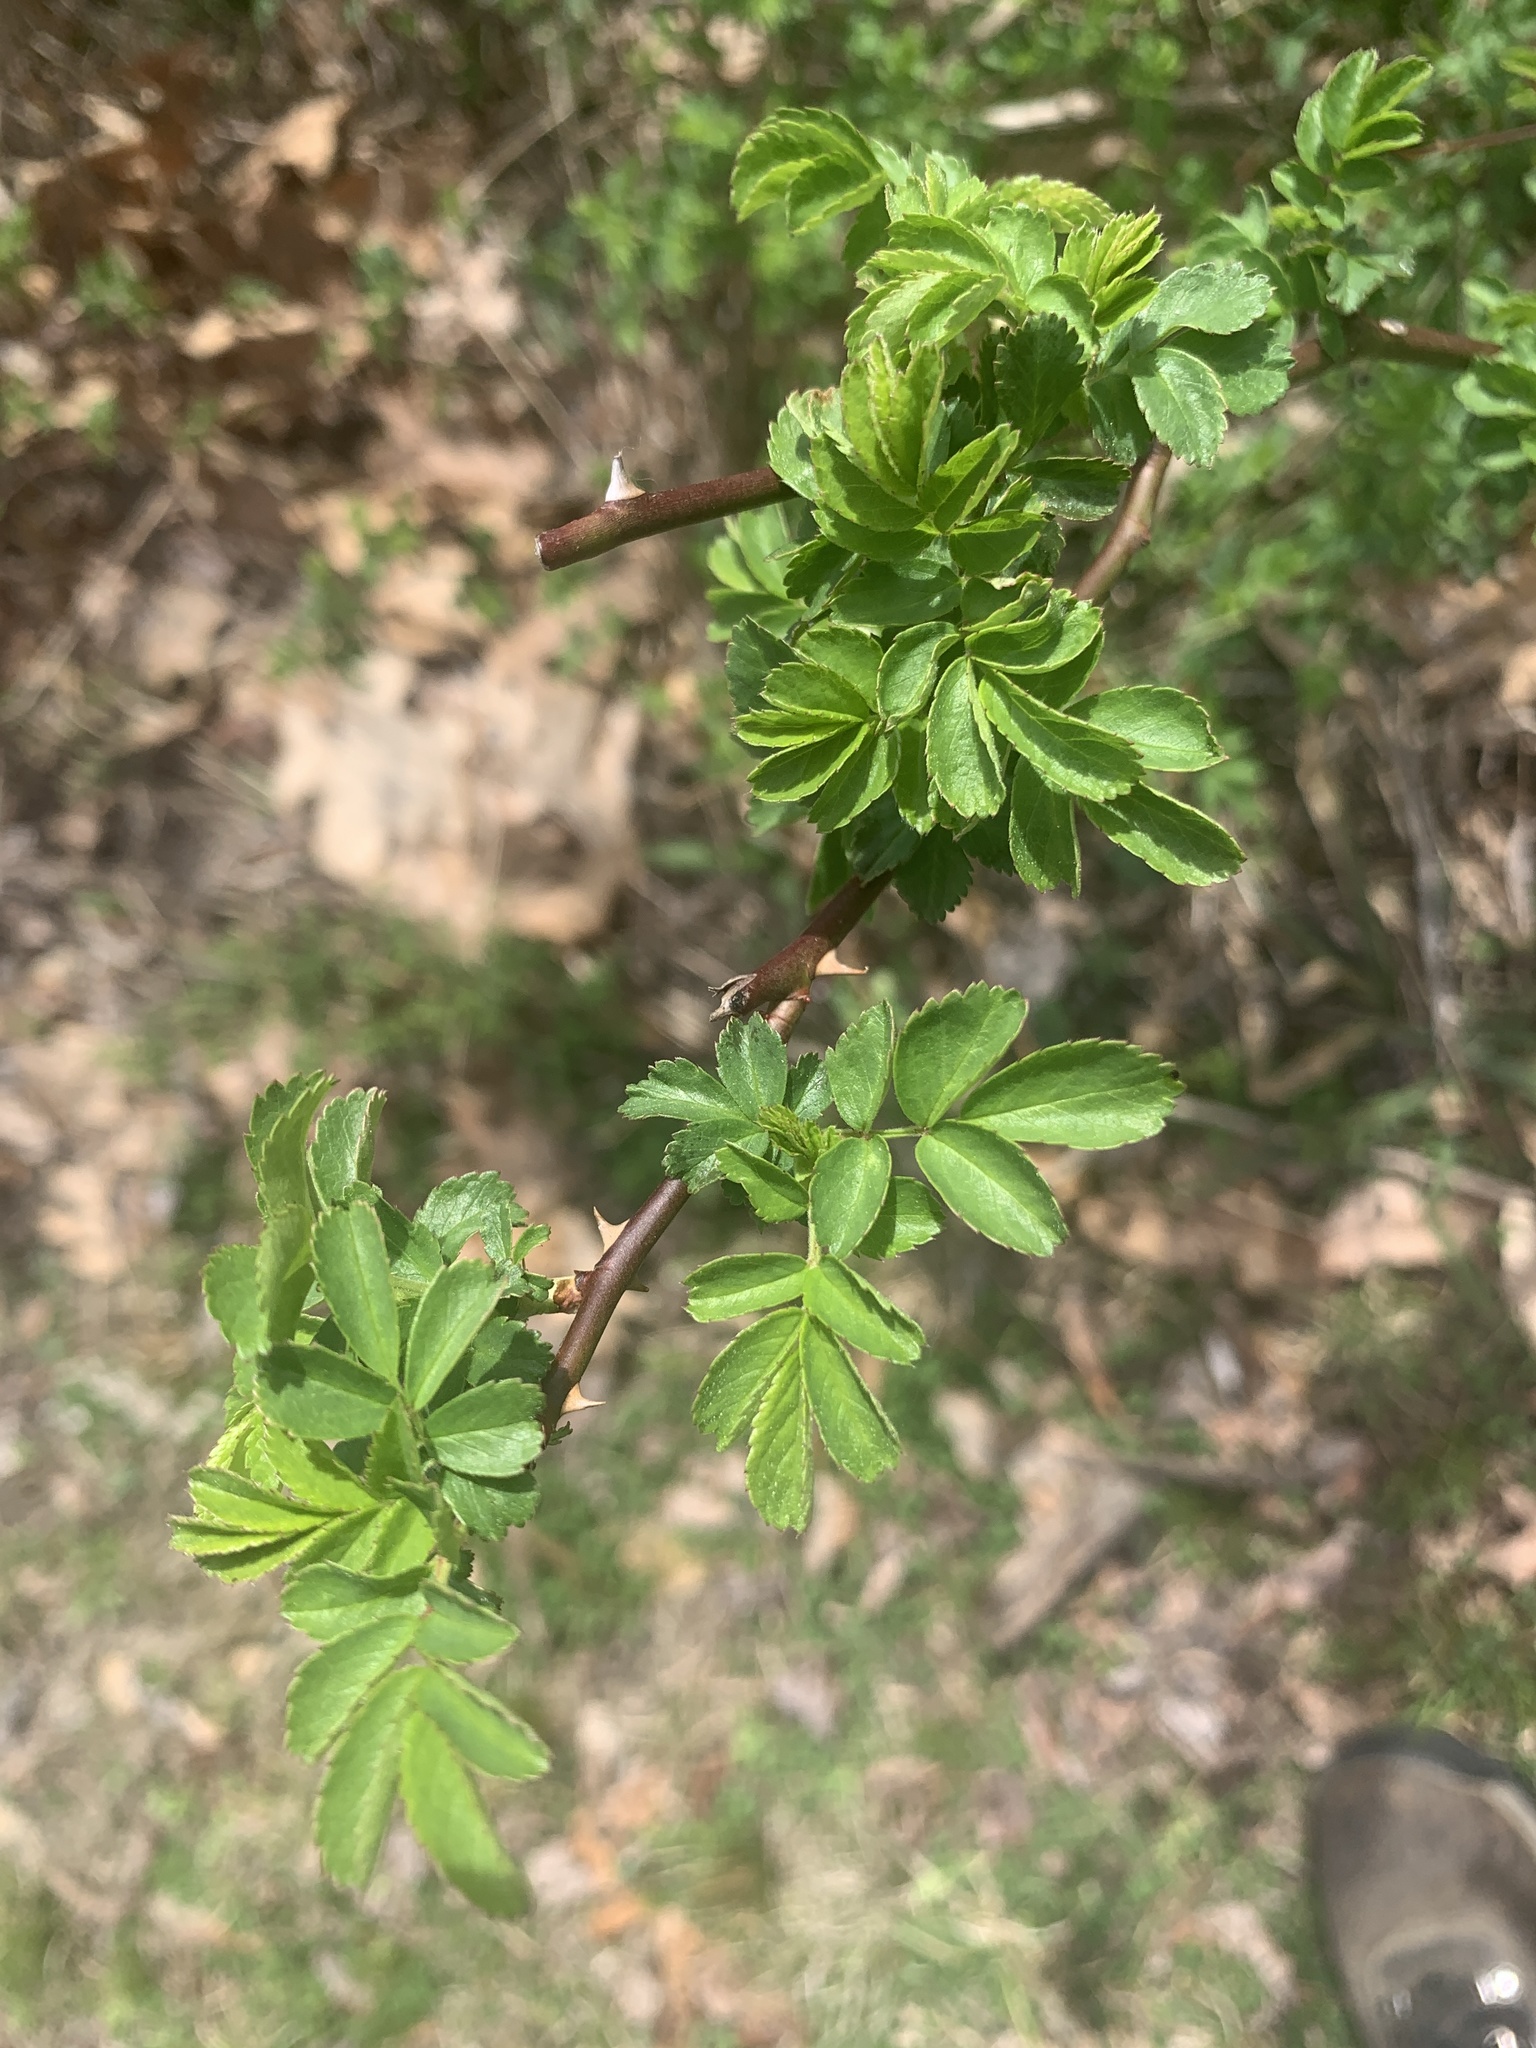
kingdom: Plantae
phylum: Tracheophyta
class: Magnoliopsida
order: Rosales
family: Rosaceae
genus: Rosa
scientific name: Rosa multiflora
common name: Multiflora rose
